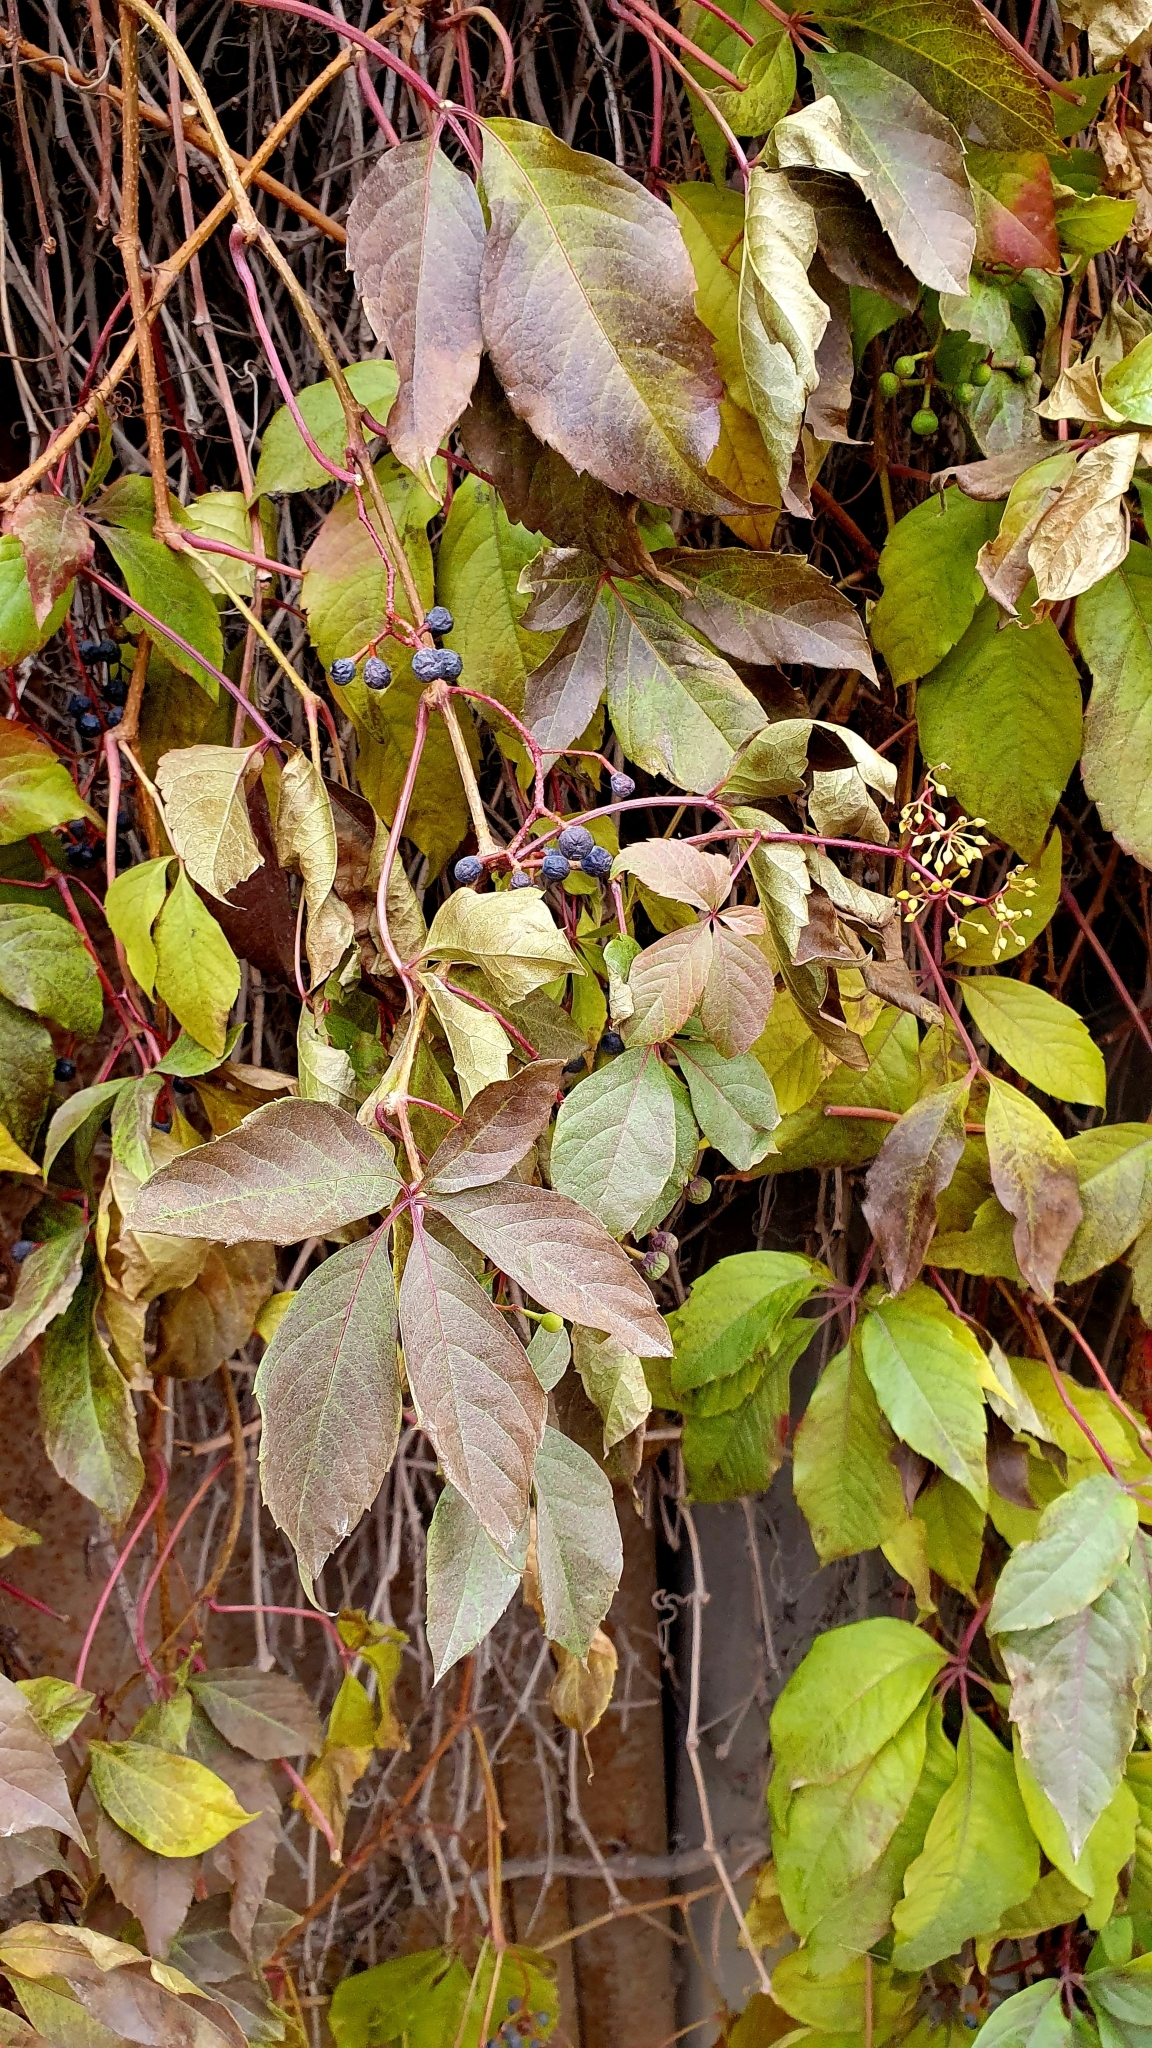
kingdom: Plantae
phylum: Tracheophyta
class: Magnoliopsida
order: Vitales
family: Vitaceae
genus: Parthenocissus
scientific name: Parthenocissus inserta
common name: False virginia-creeper
